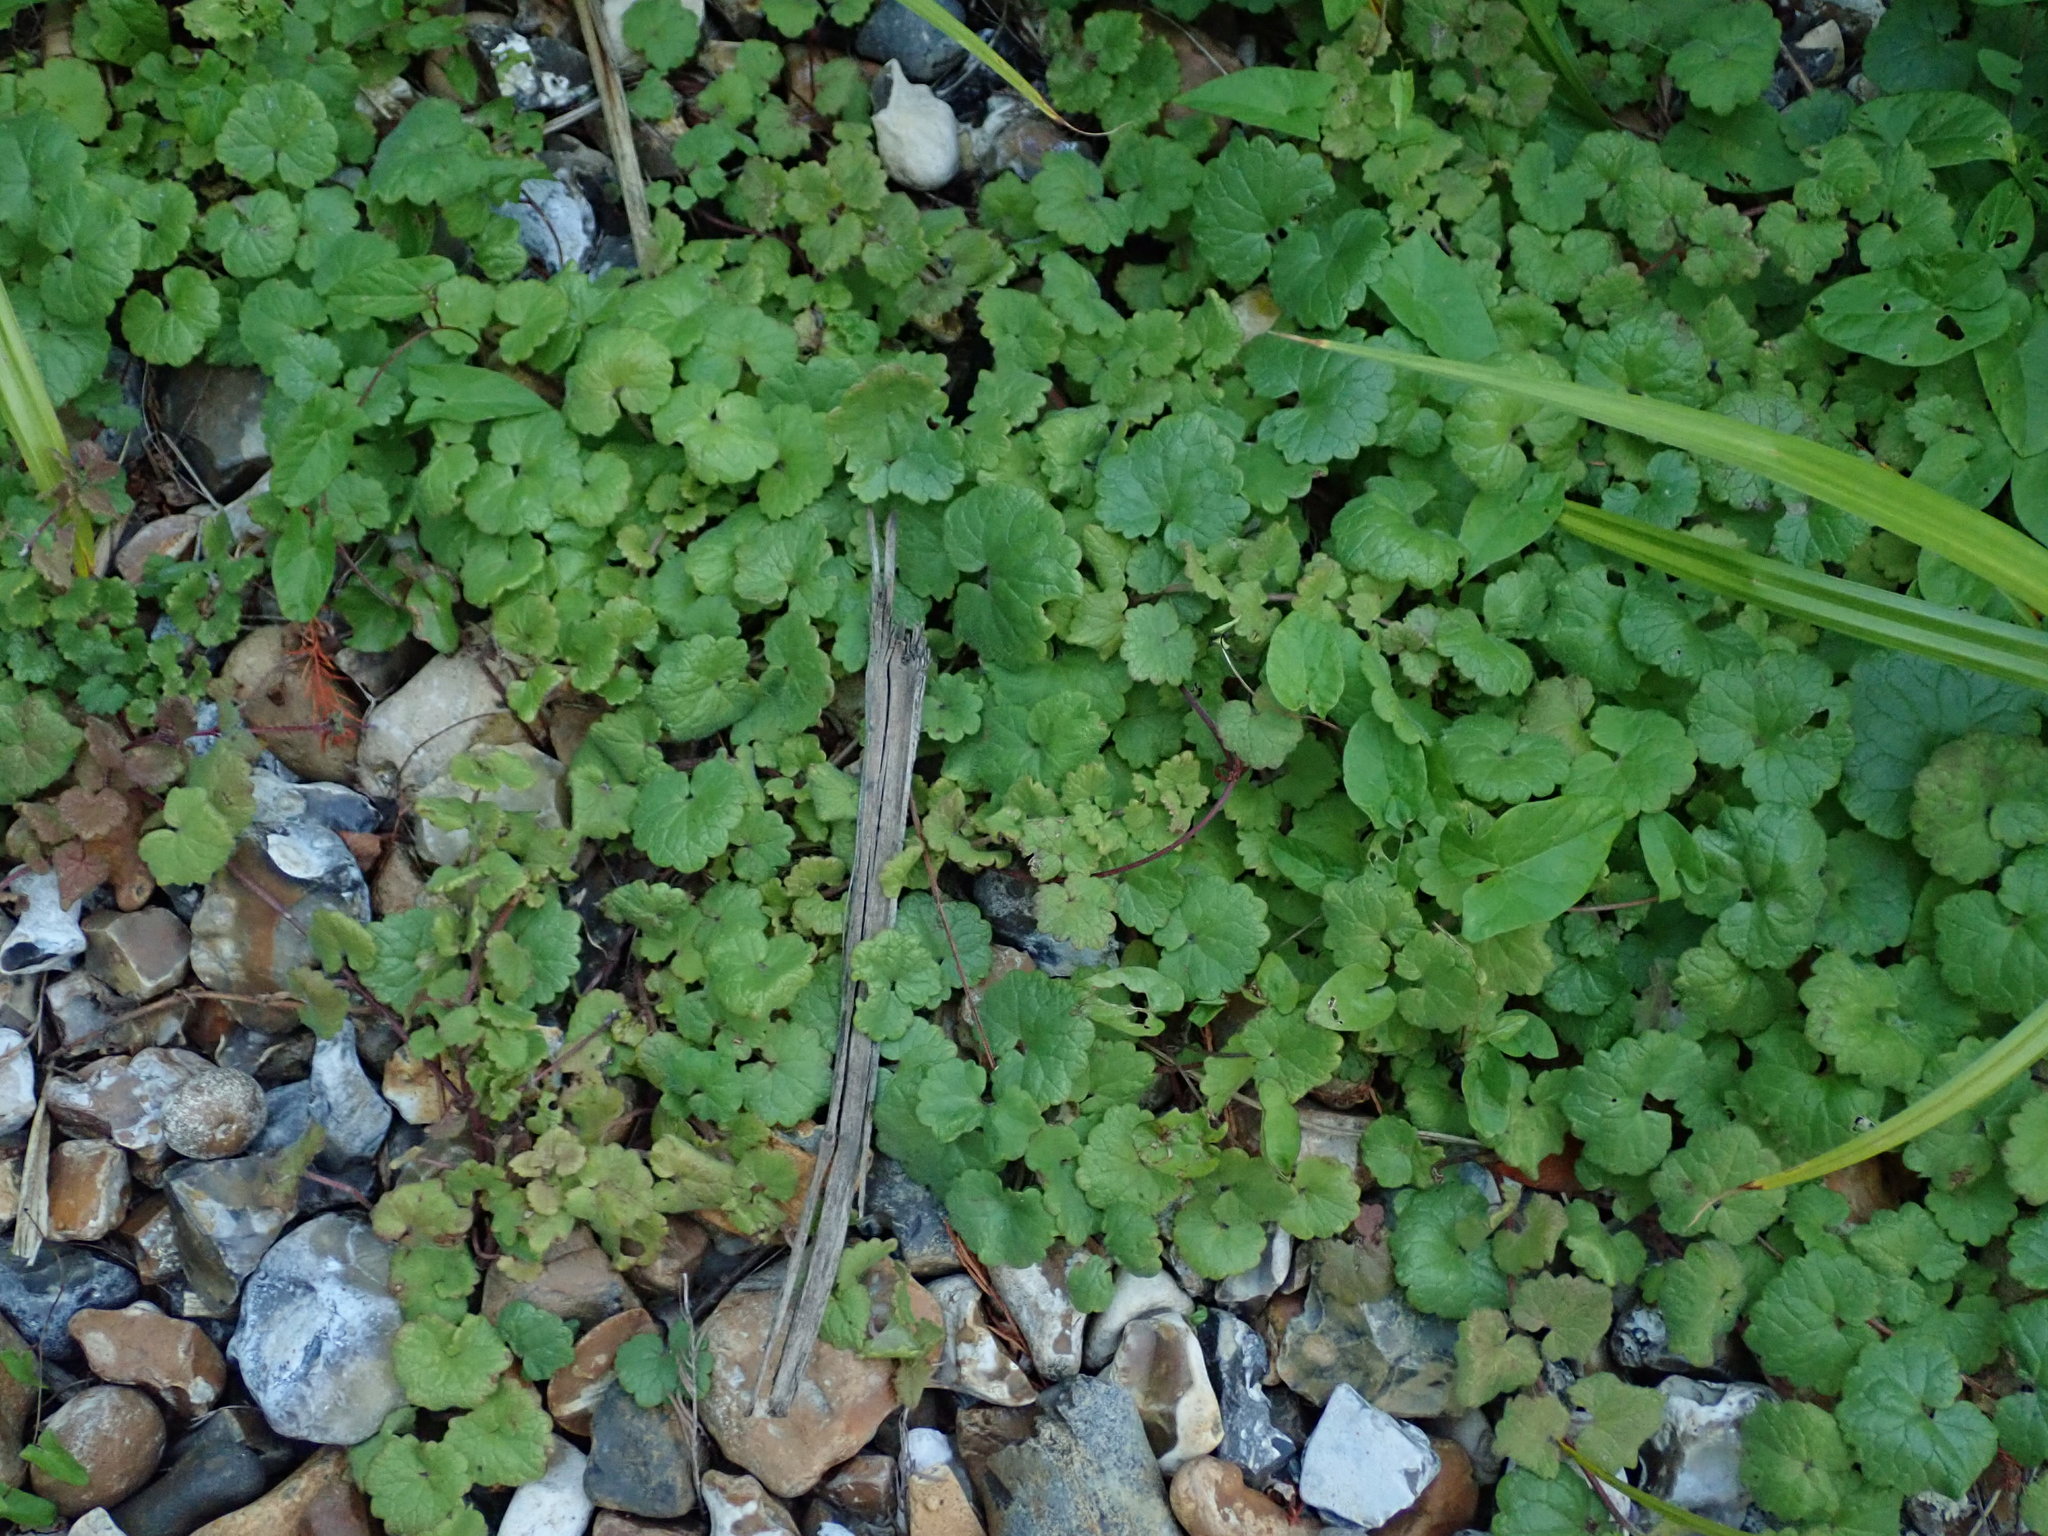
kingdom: Plantae
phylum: Tracheophyta
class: Magnoliopsida
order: Lamiales
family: Lamiaceae
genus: Glechoma
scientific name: Glechoma hederacea
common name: Ground ivy
